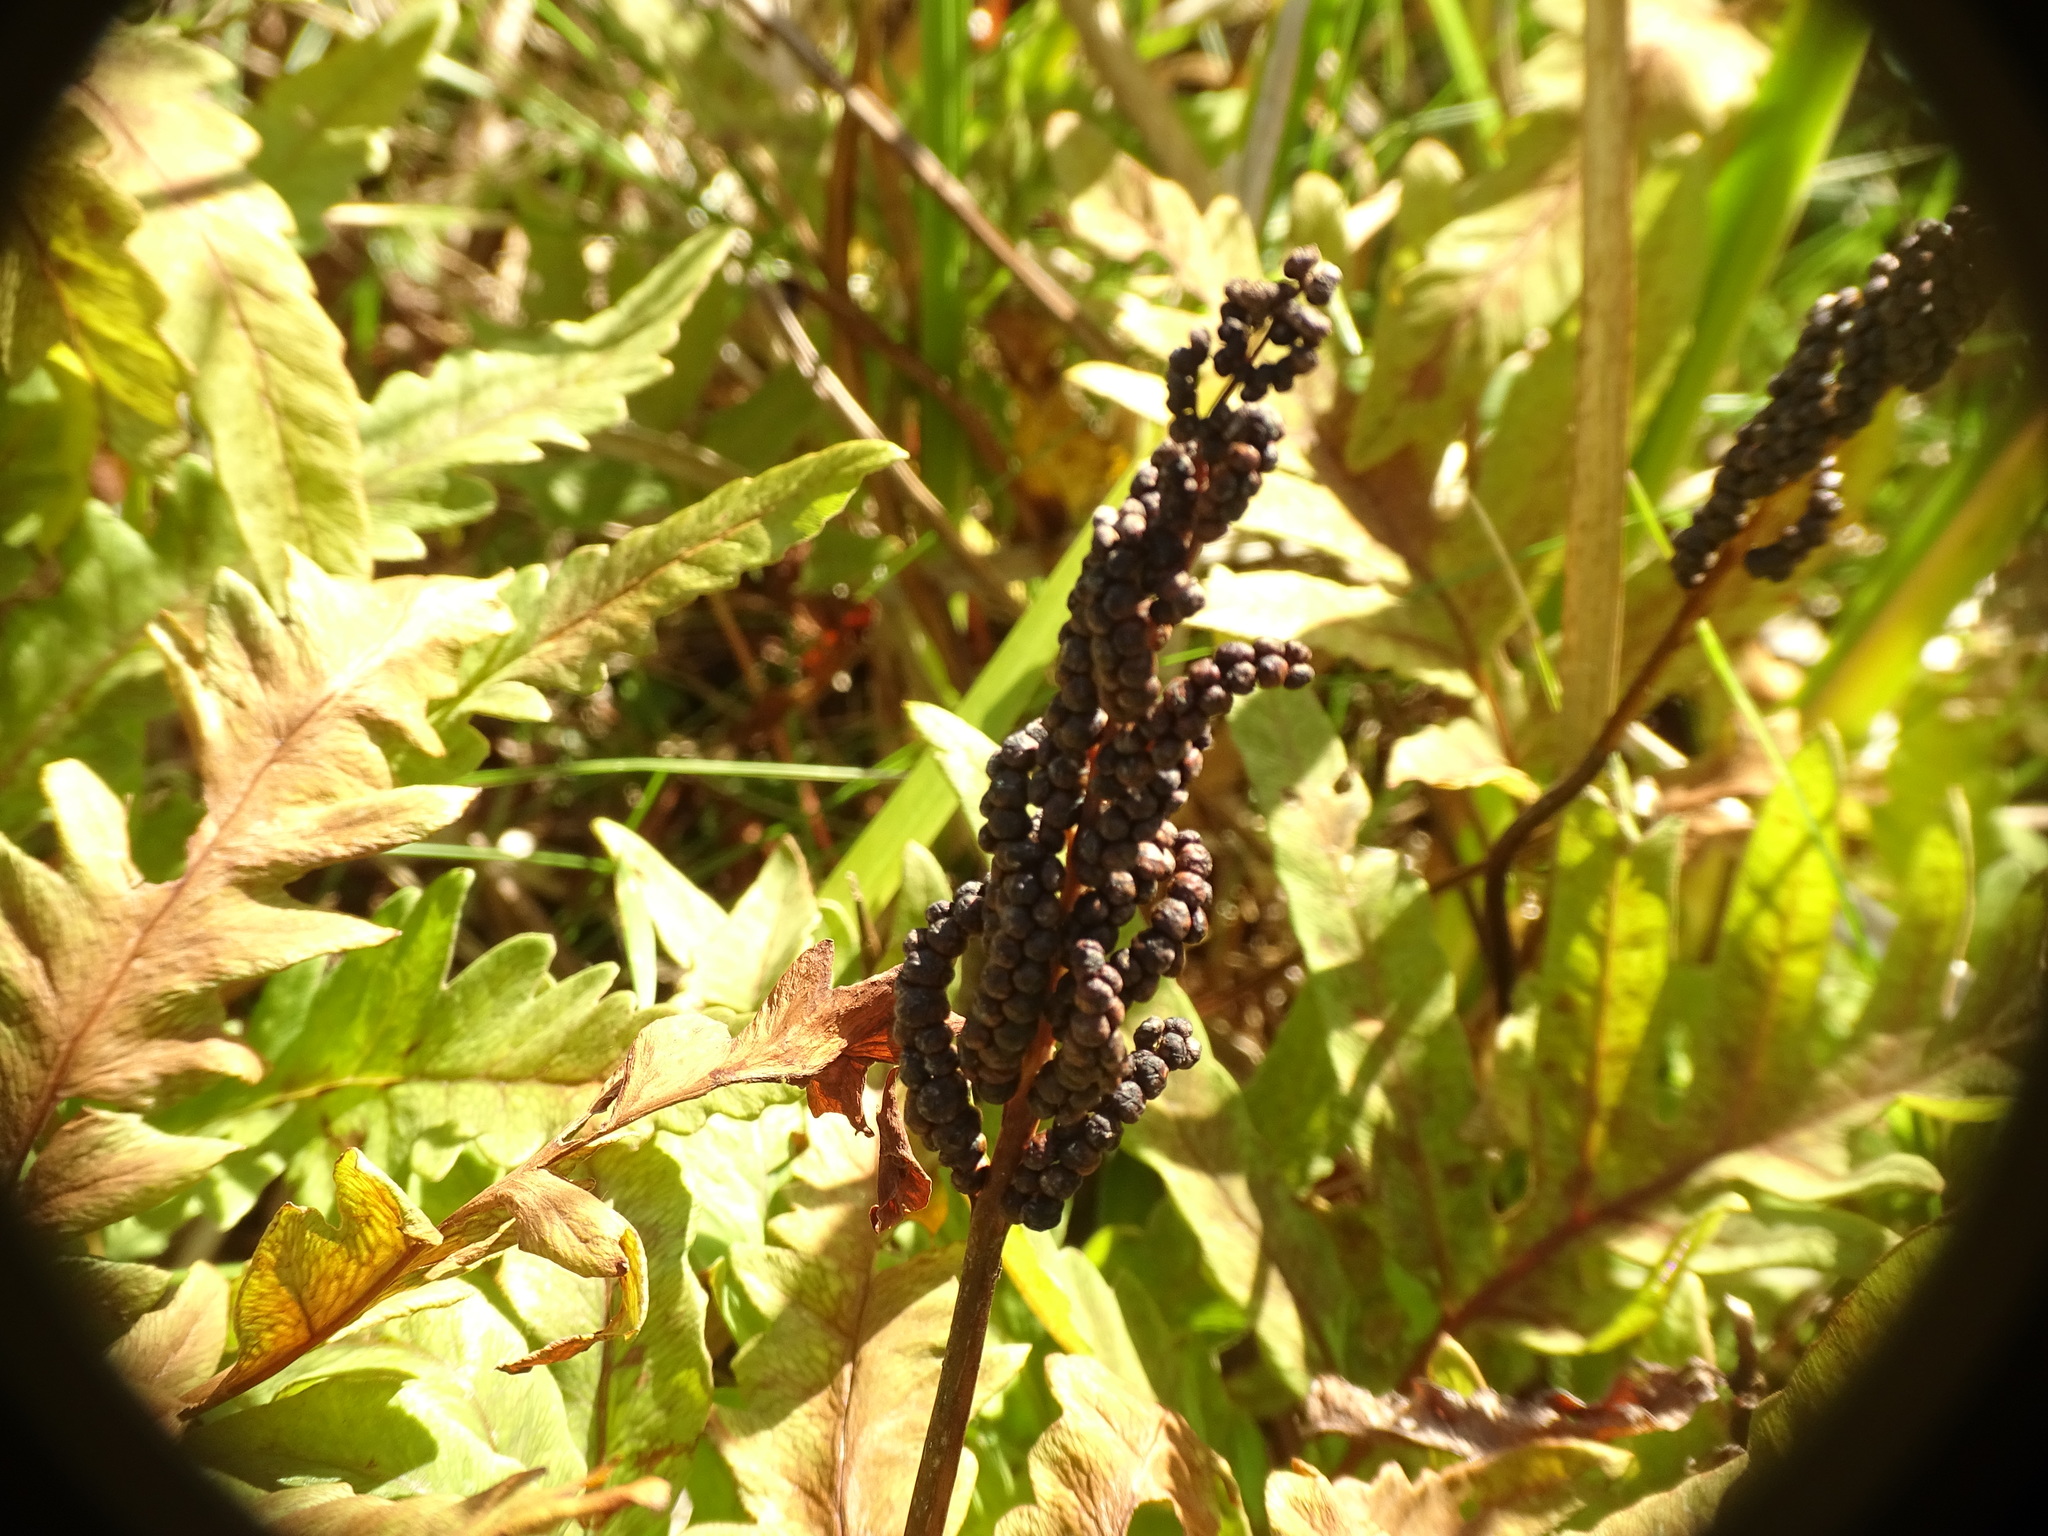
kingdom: Plantae
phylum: Tracheophyta
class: Polypodiopsida
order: Polypodiales
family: Onocleaceae
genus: Onoclea
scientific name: Onoclea sensibilis
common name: Sensitive fern
